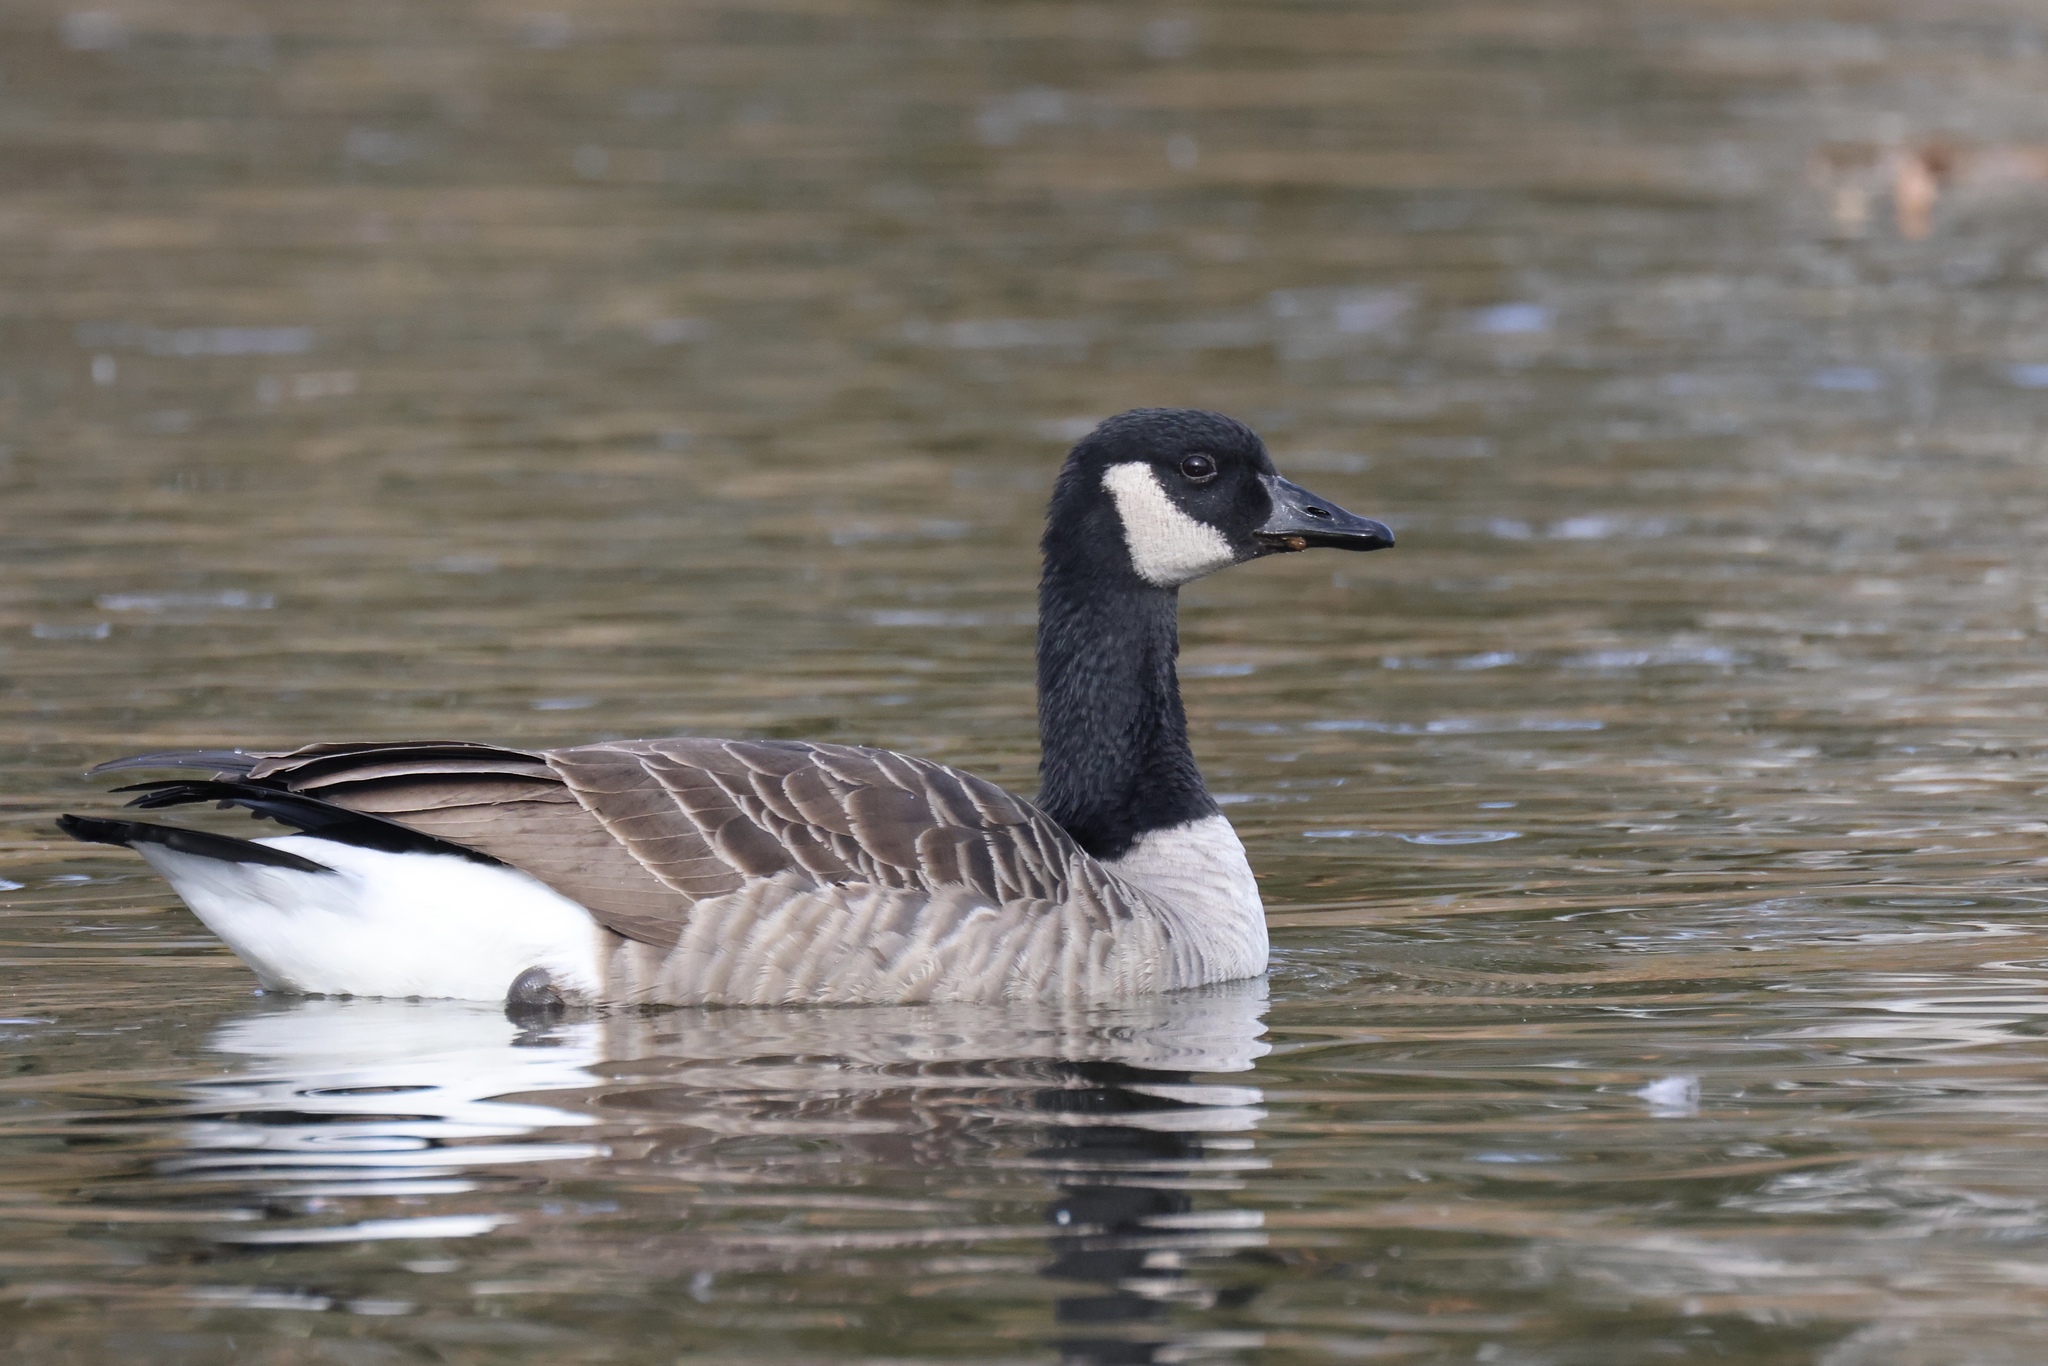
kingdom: Animalia
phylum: Chordata
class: Aves
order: Anseriformes
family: Anatidae
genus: Branta
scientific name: Branta canadensis
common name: Canada goose
